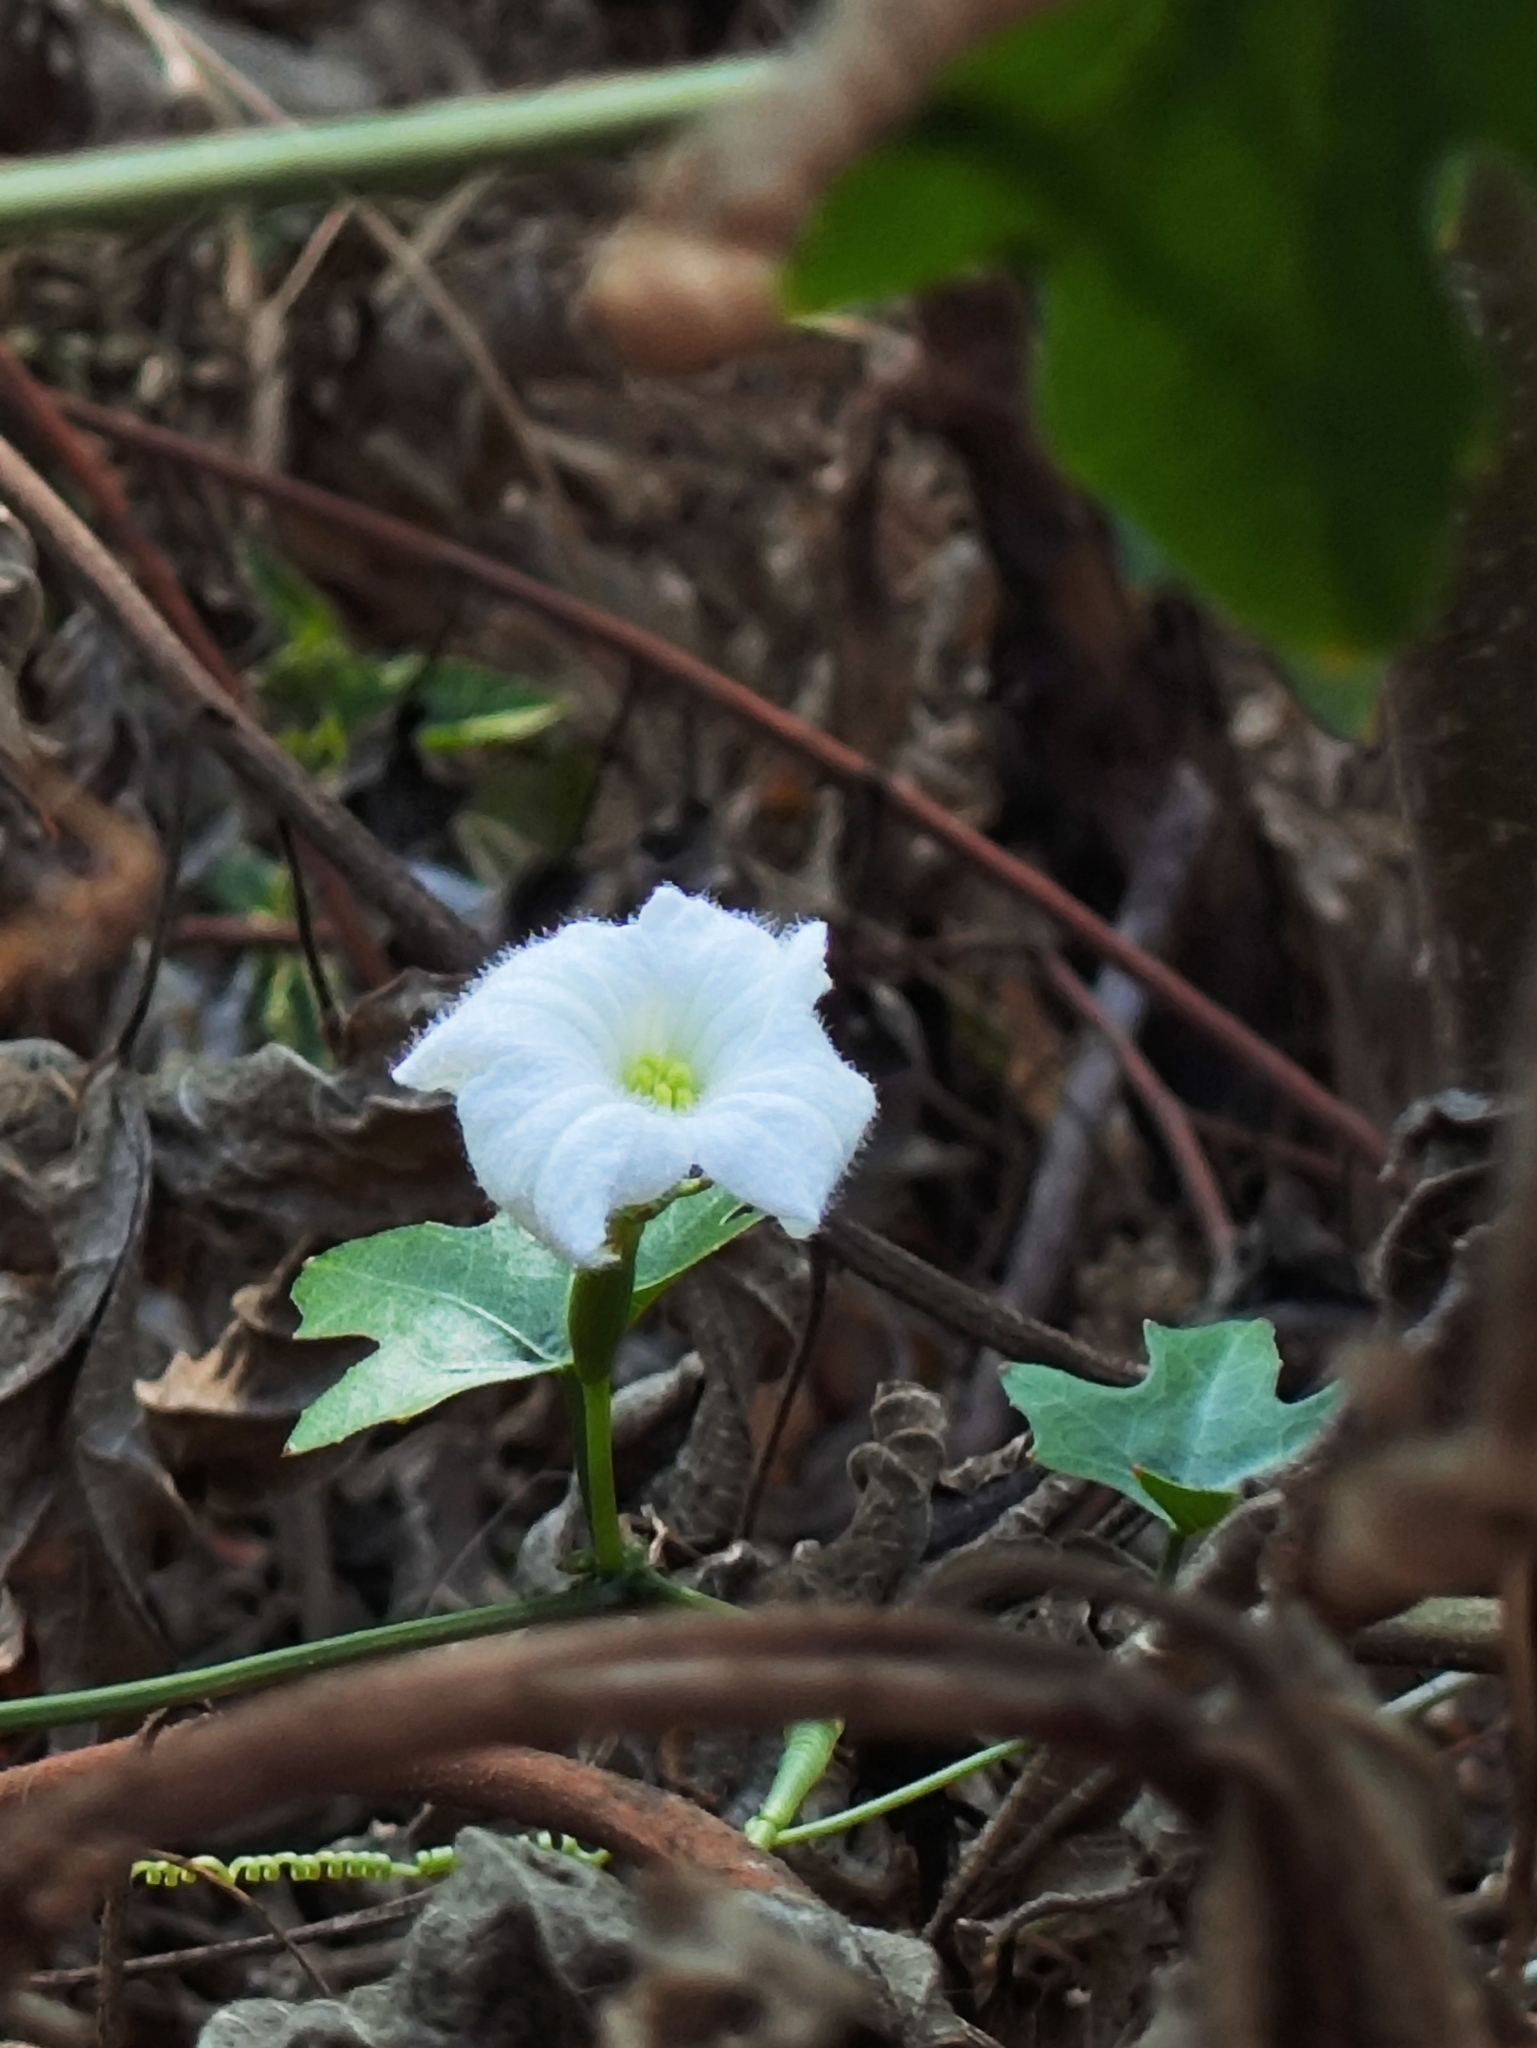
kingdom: Plantae
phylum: Tracheophyta
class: Magnoliopsida
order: Cucurbitales
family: Cucurbitaceae
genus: Coccinia
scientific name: Coccinia grandis
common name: Ivy gourd
